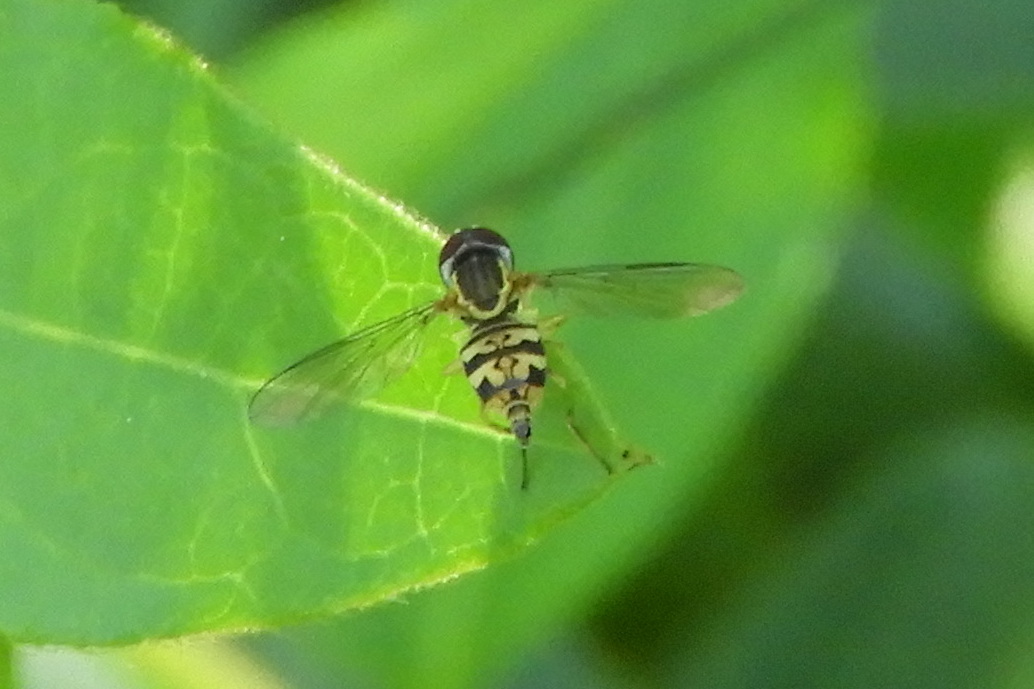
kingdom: Animalia
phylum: Arthropoda
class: Insecta
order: Diptera
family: Syrphidae
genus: Toxomerus
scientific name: Toxomerus geminatus
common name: Eastern calligrapher
